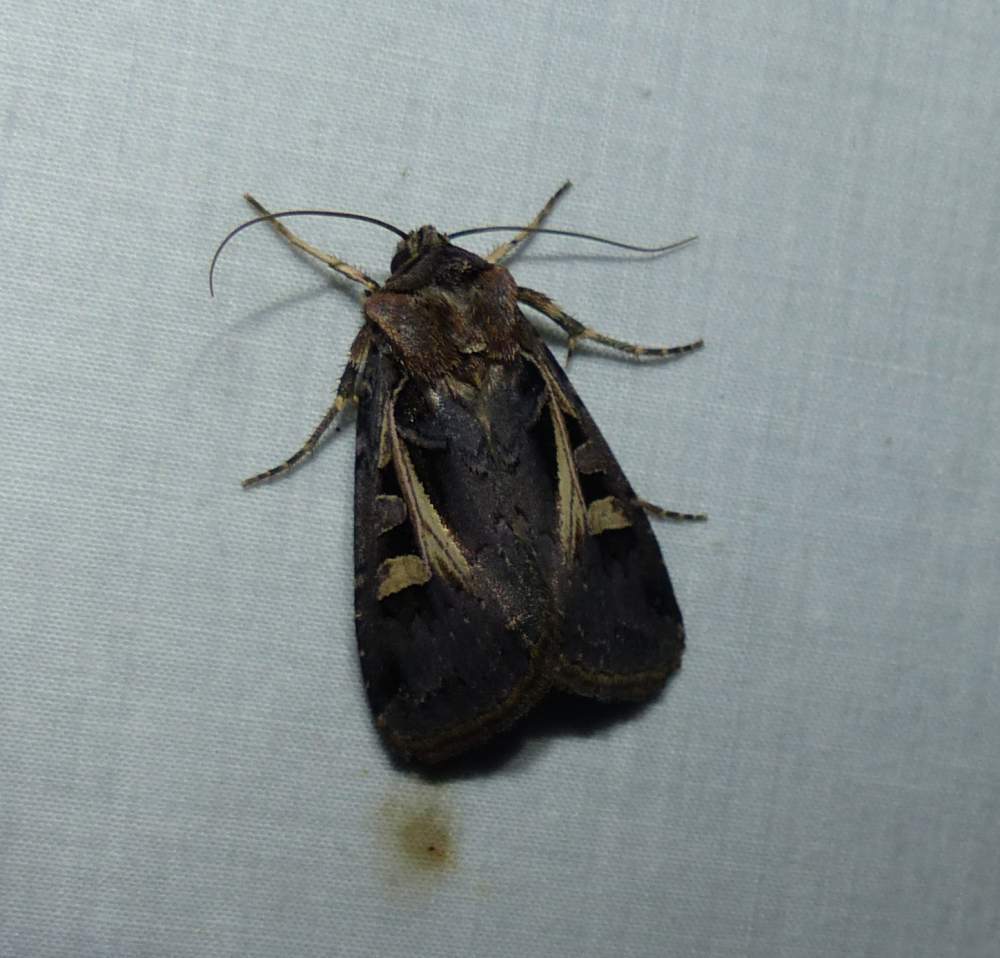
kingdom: Animalia
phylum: Arthropoda
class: Insecta
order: Lepidoptera
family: Noctuidae
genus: Feltia
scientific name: Feltia herilis
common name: Master's dart
